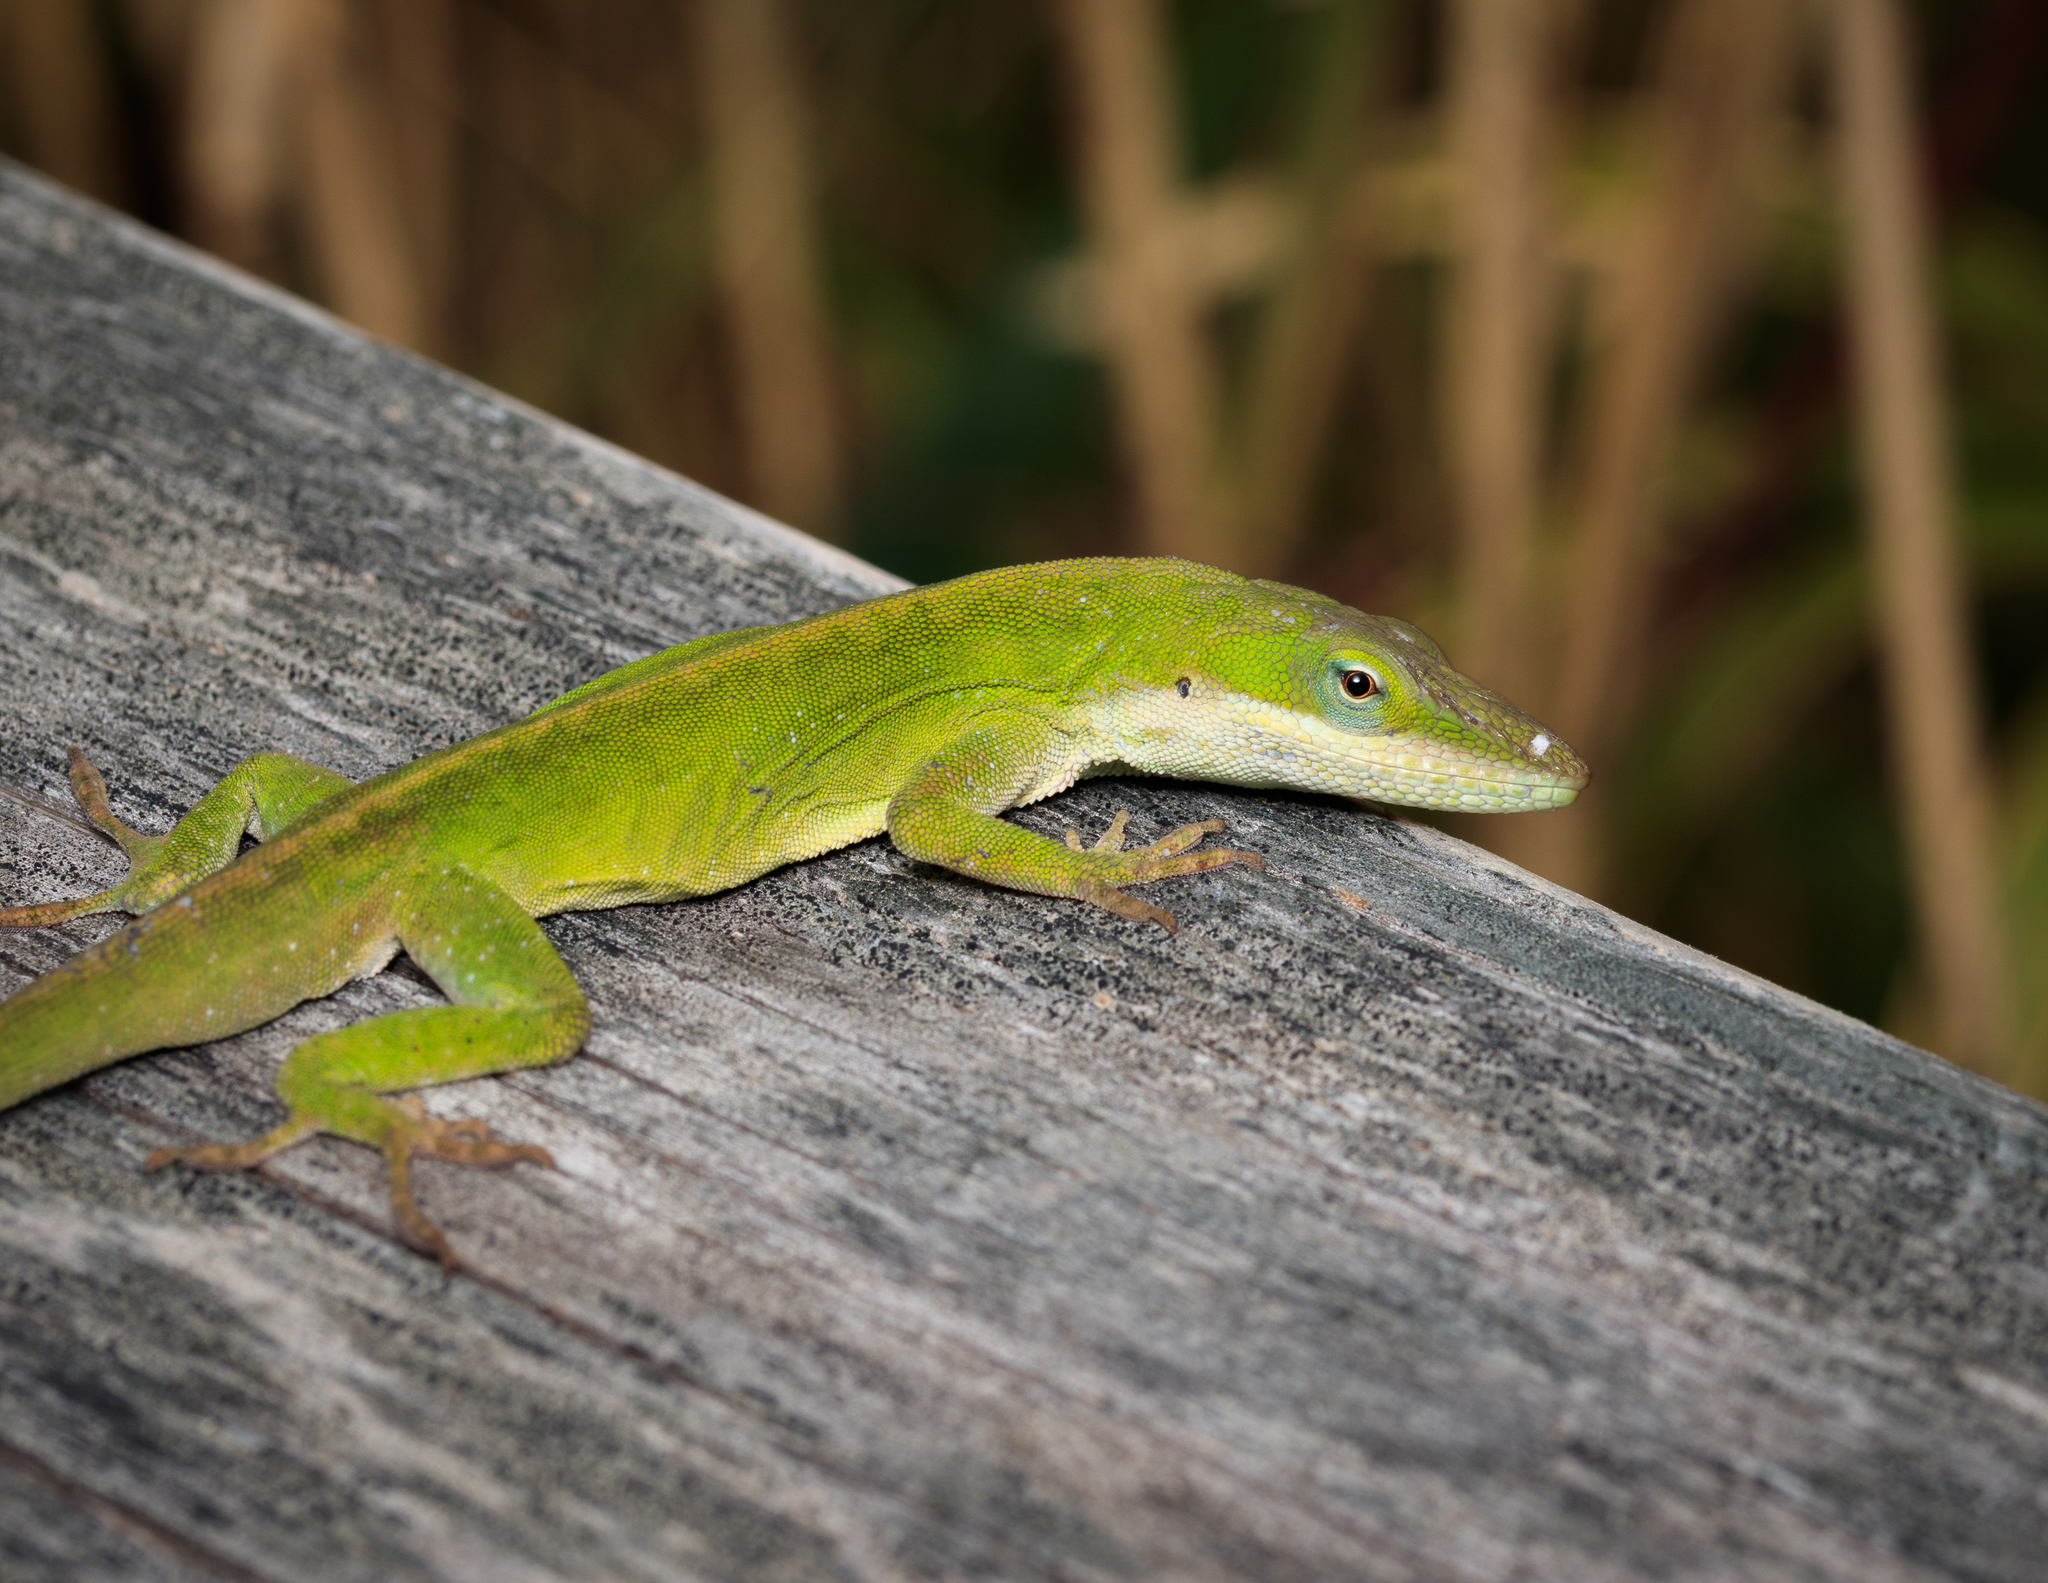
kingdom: Animalia
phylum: Chordata
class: Squamata
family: Dactyloidae
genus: Anolis
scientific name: Anolis carolinensis
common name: Green anole
